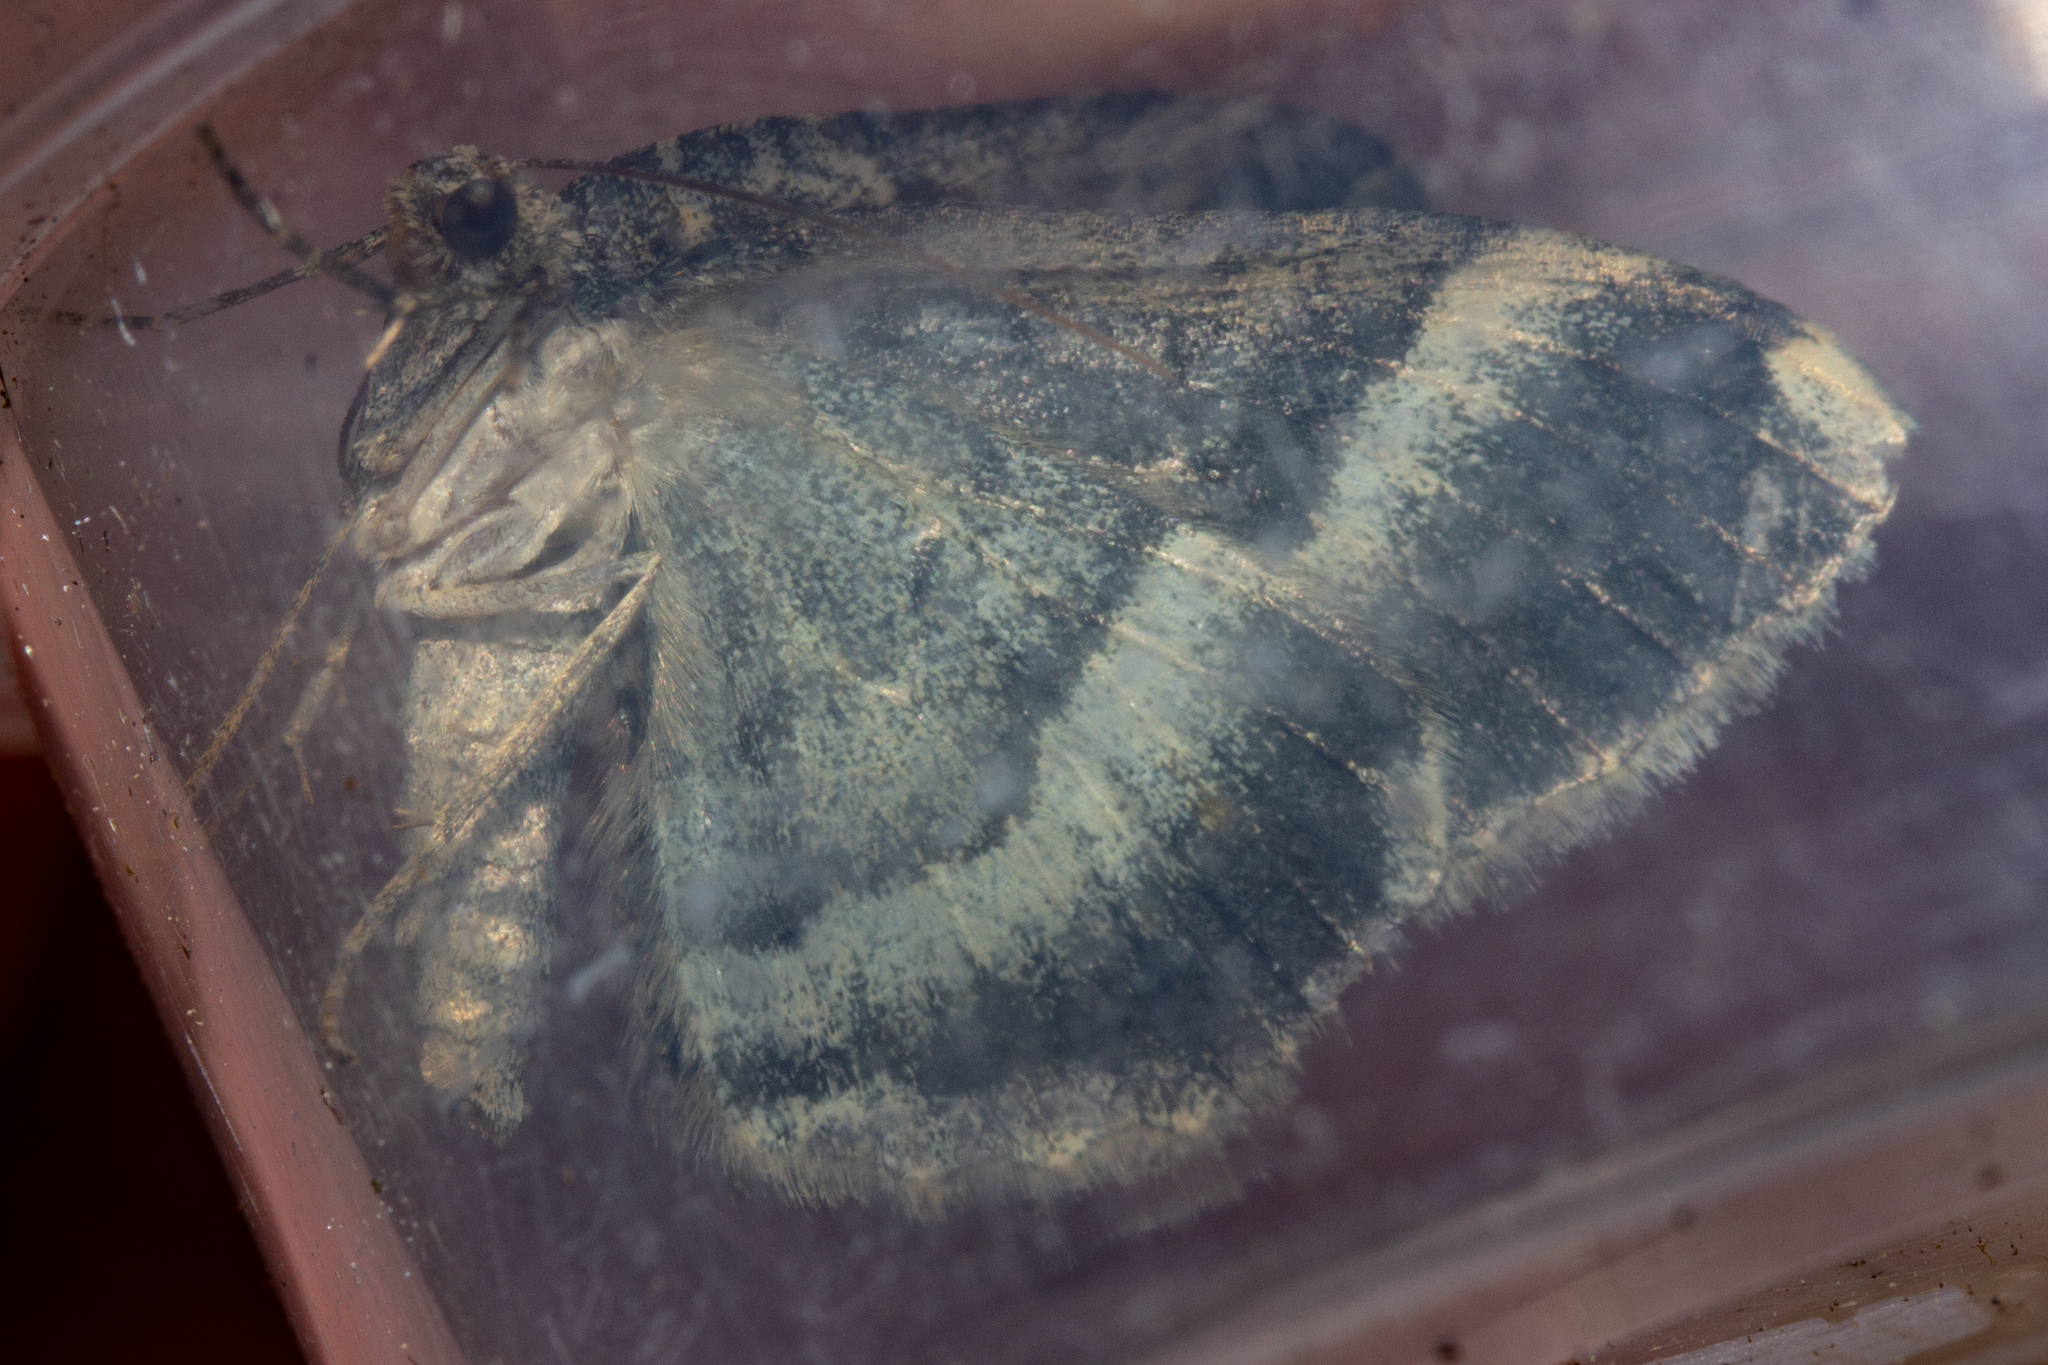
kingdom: Animalia
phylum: Arthropoda
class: Insecta
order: Lepidoptera
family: Geometridae
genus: Gingidiobora
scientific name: Gingidiobora nebulosa
